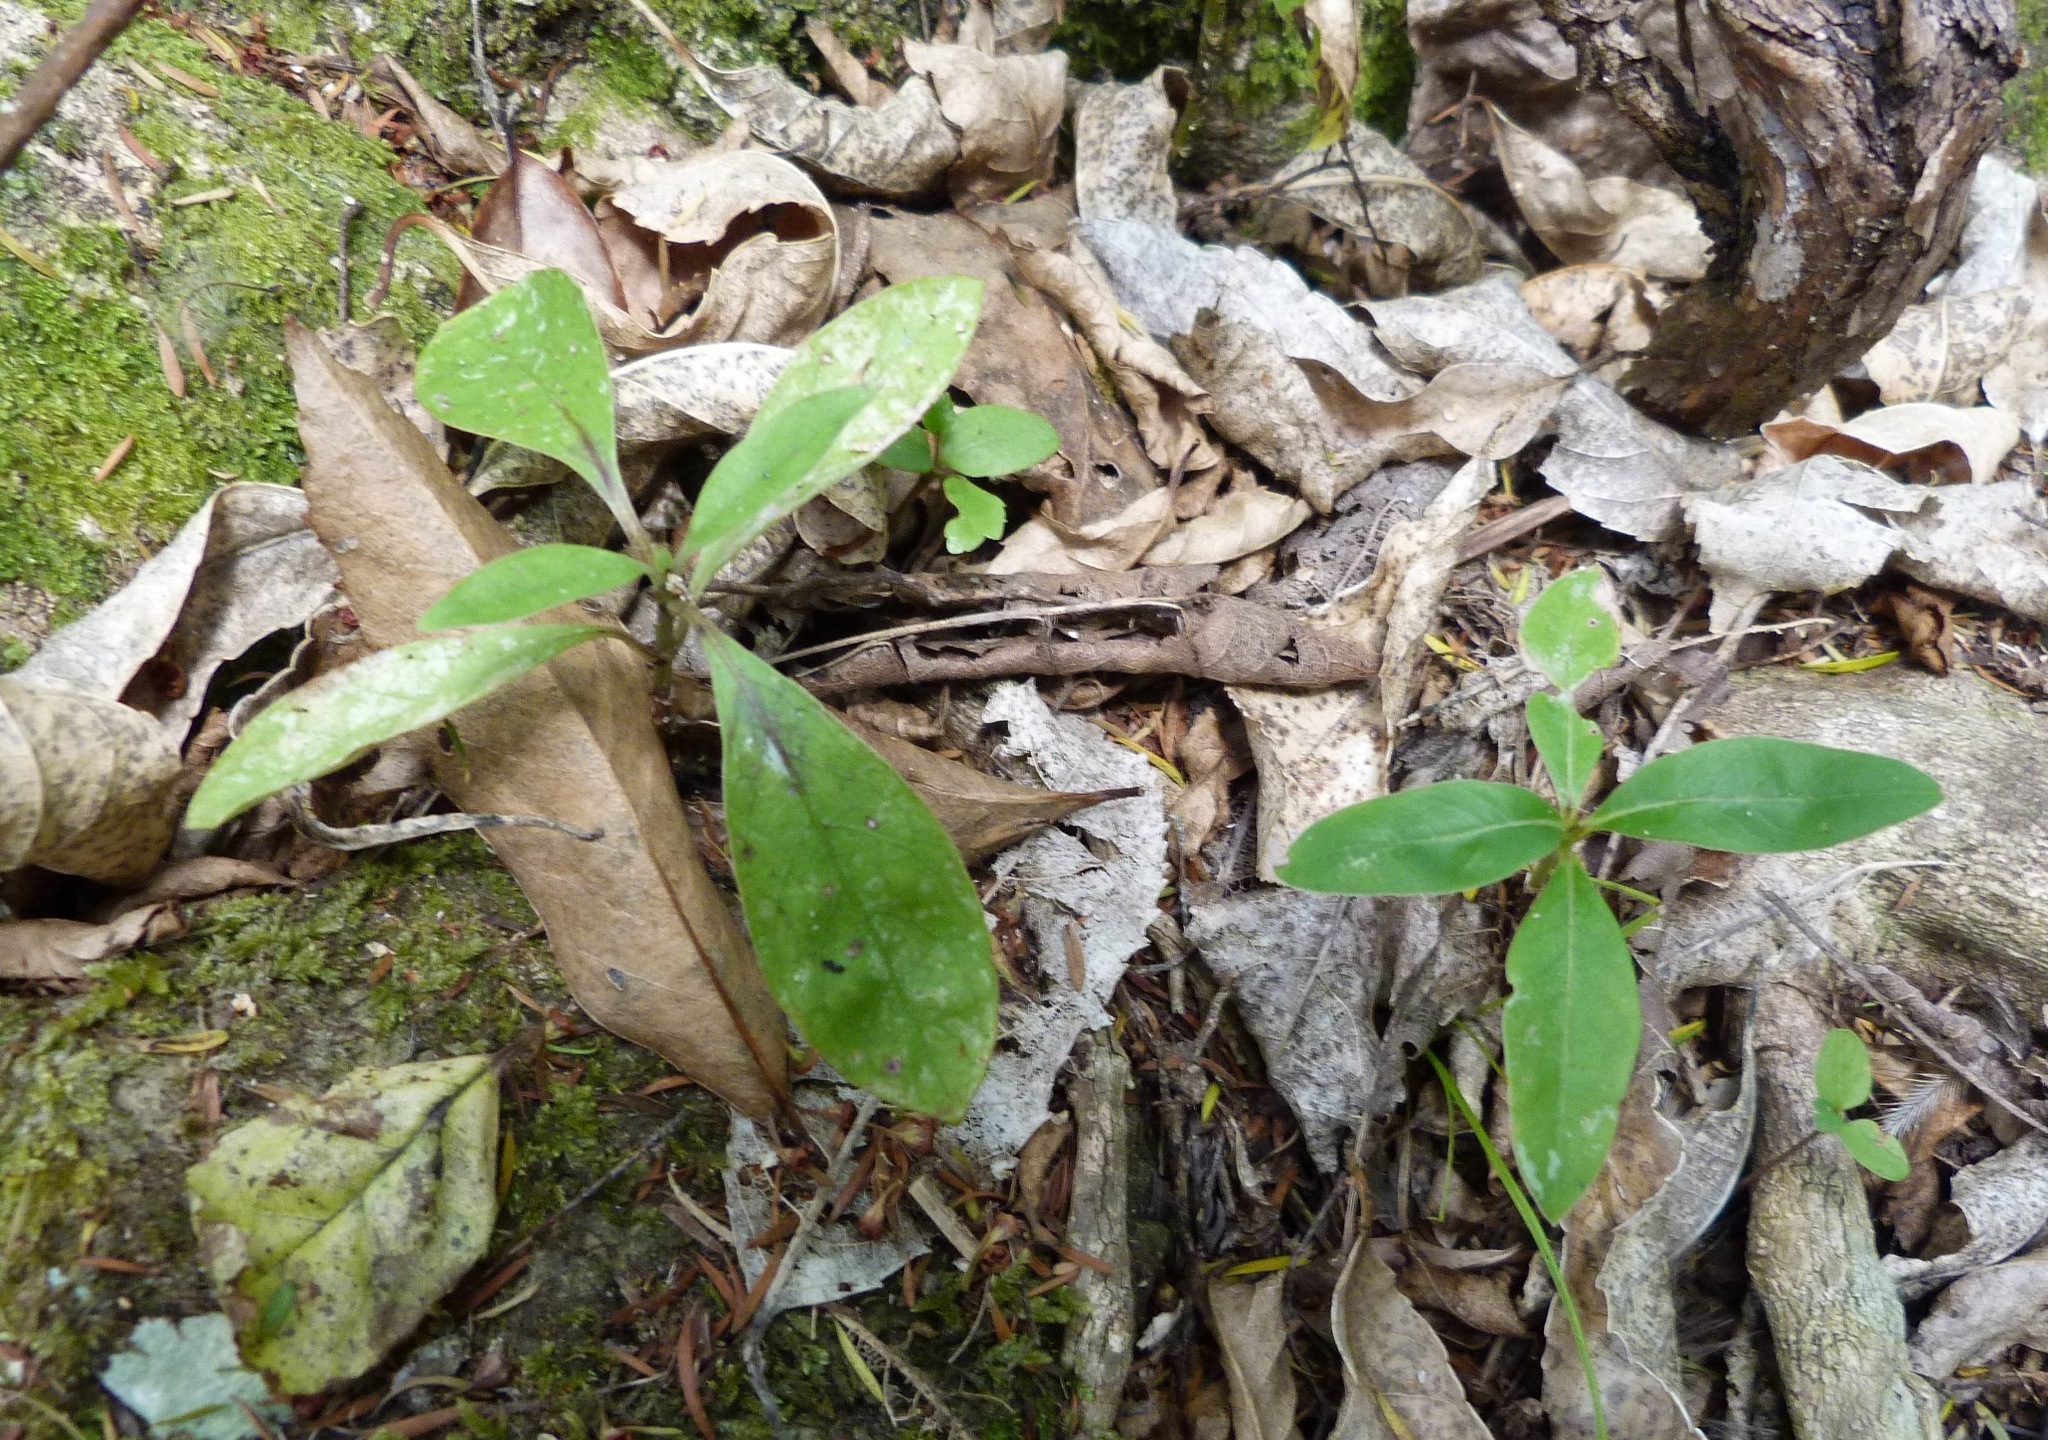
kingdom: Plantae
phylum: Tracheophyta
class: Magnoliopsida
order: Gentianales
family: Rubiaceae
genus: Coprosma
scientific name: Coprosma robusta
